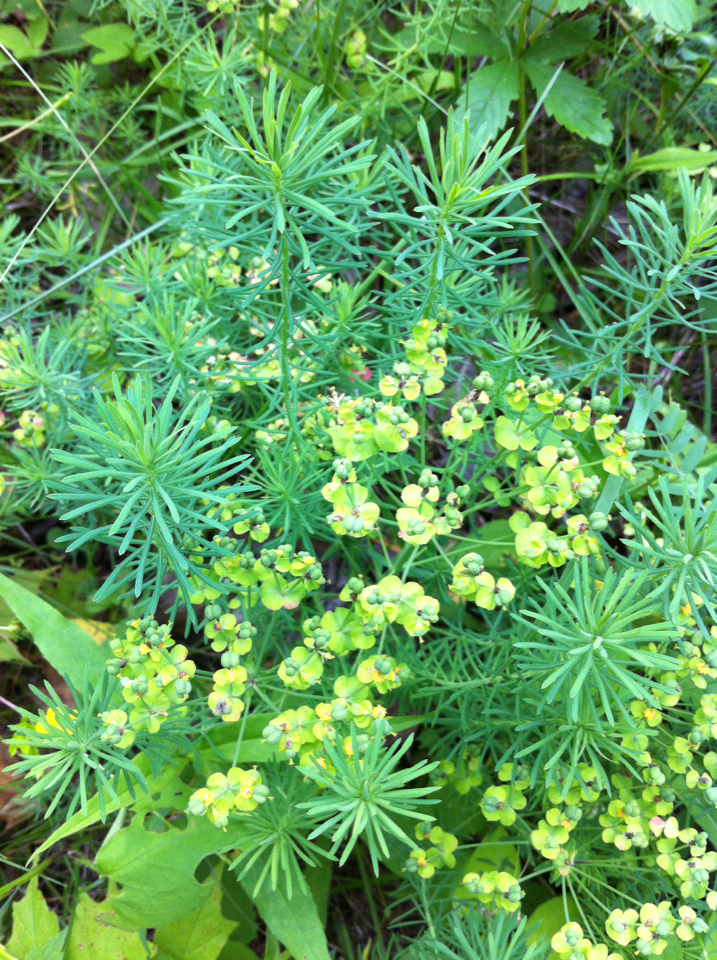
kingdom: Plantae
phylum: Tracheophyta
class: Magnoliopsida
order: Malpighiales
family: Euphorbiaceae
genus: Euphorbia
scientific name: Euphorbia cyparissias
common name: Cypress spurge
